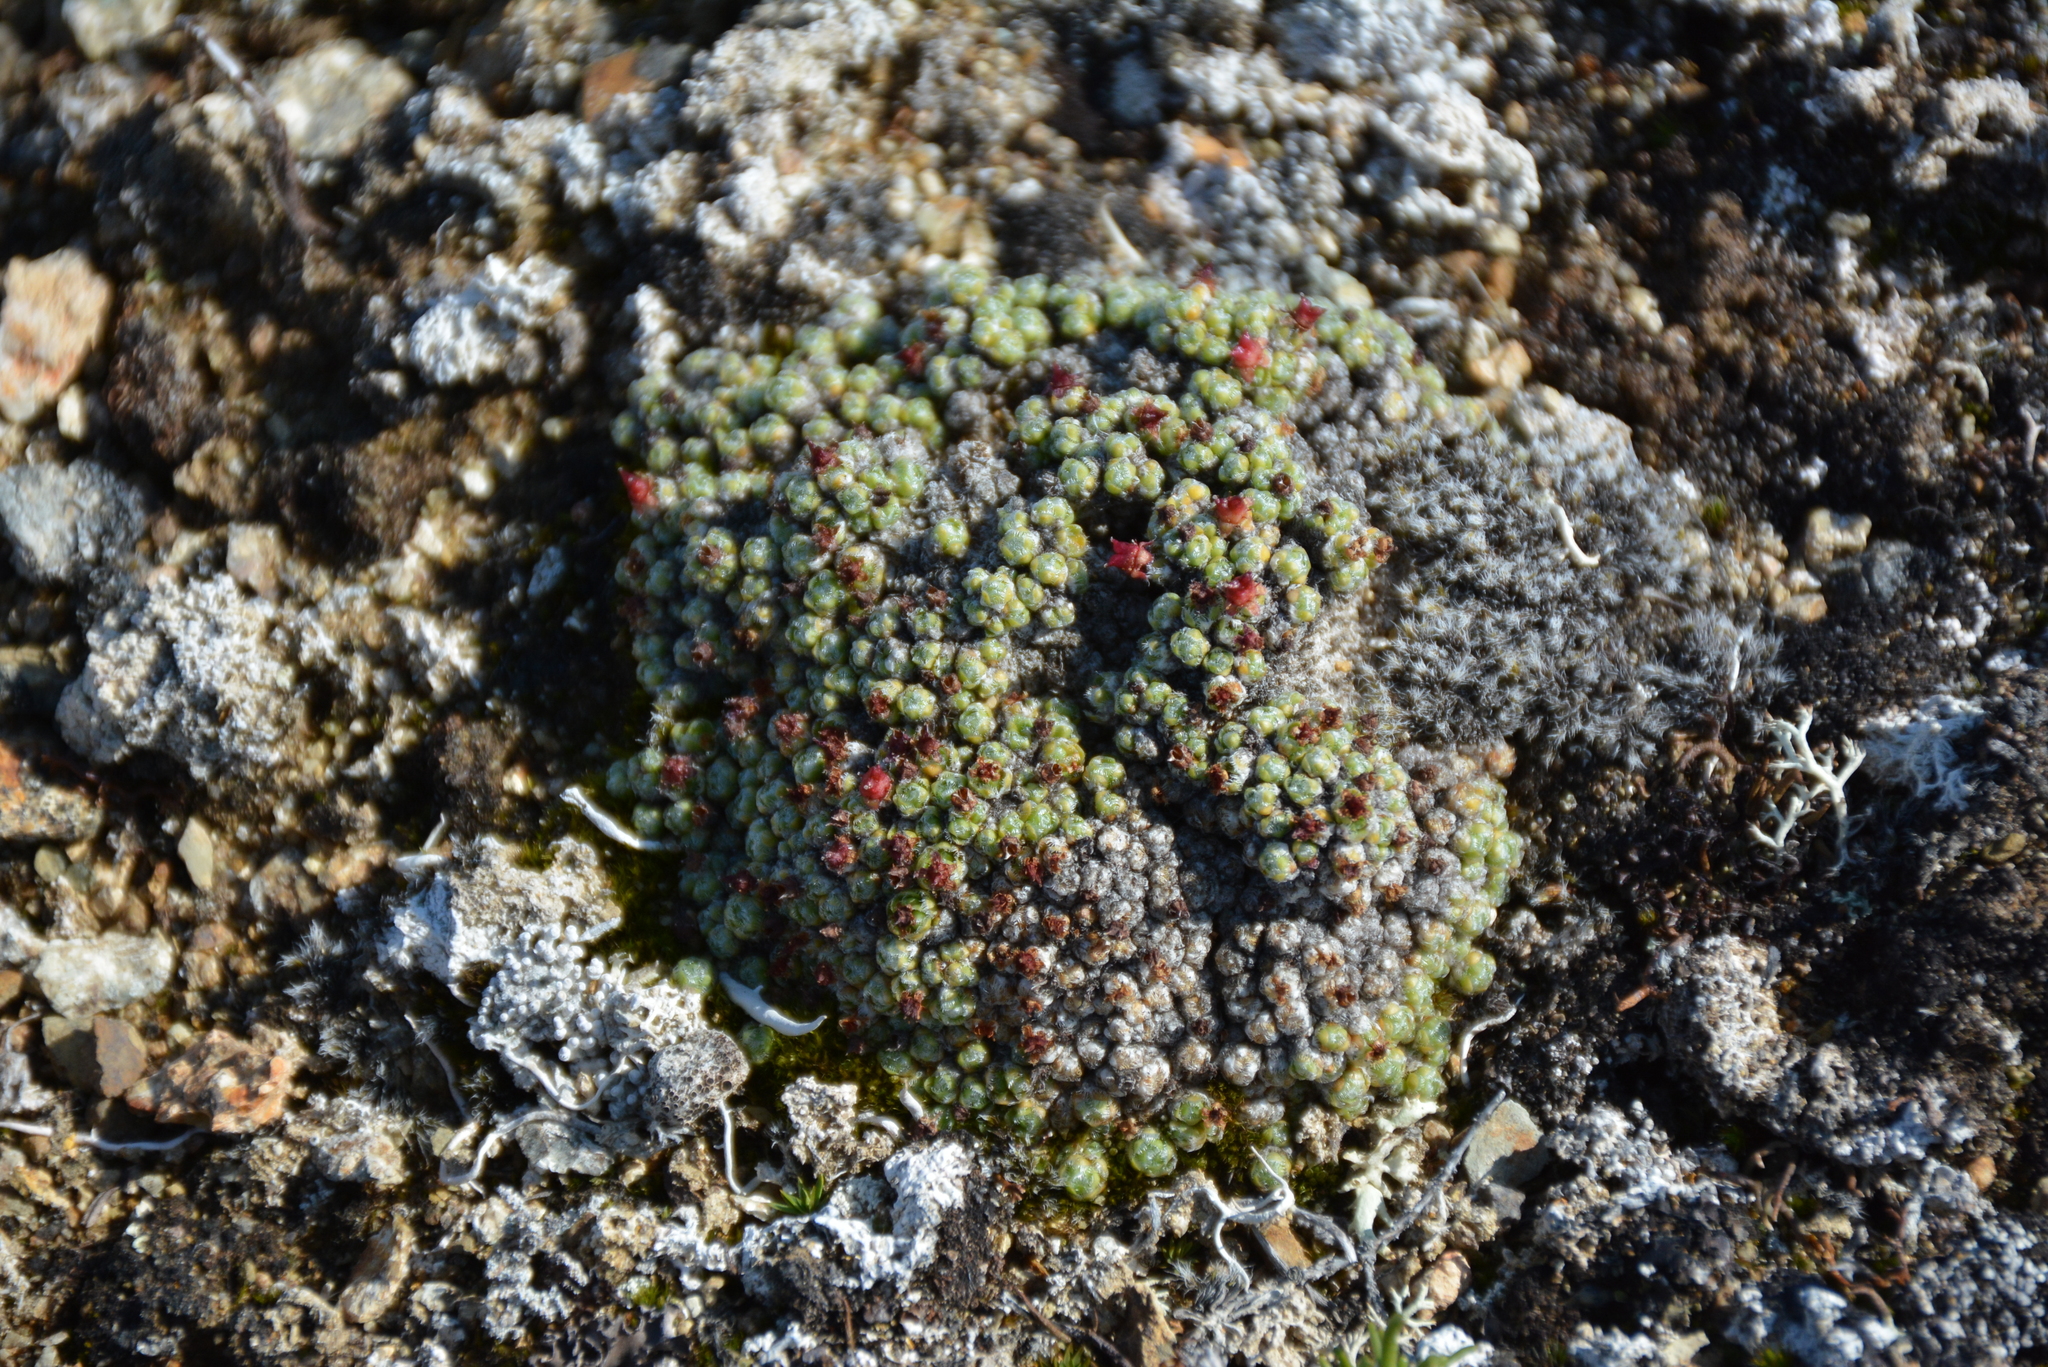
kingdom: Plantae
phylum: Tracheophyta
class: Magnoliopsida
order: Saxifragales
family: Saxifragaceae
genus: Saxifraga
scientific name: Saxifraga eschscholtzii
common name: Eschscholtz's saxifrage
